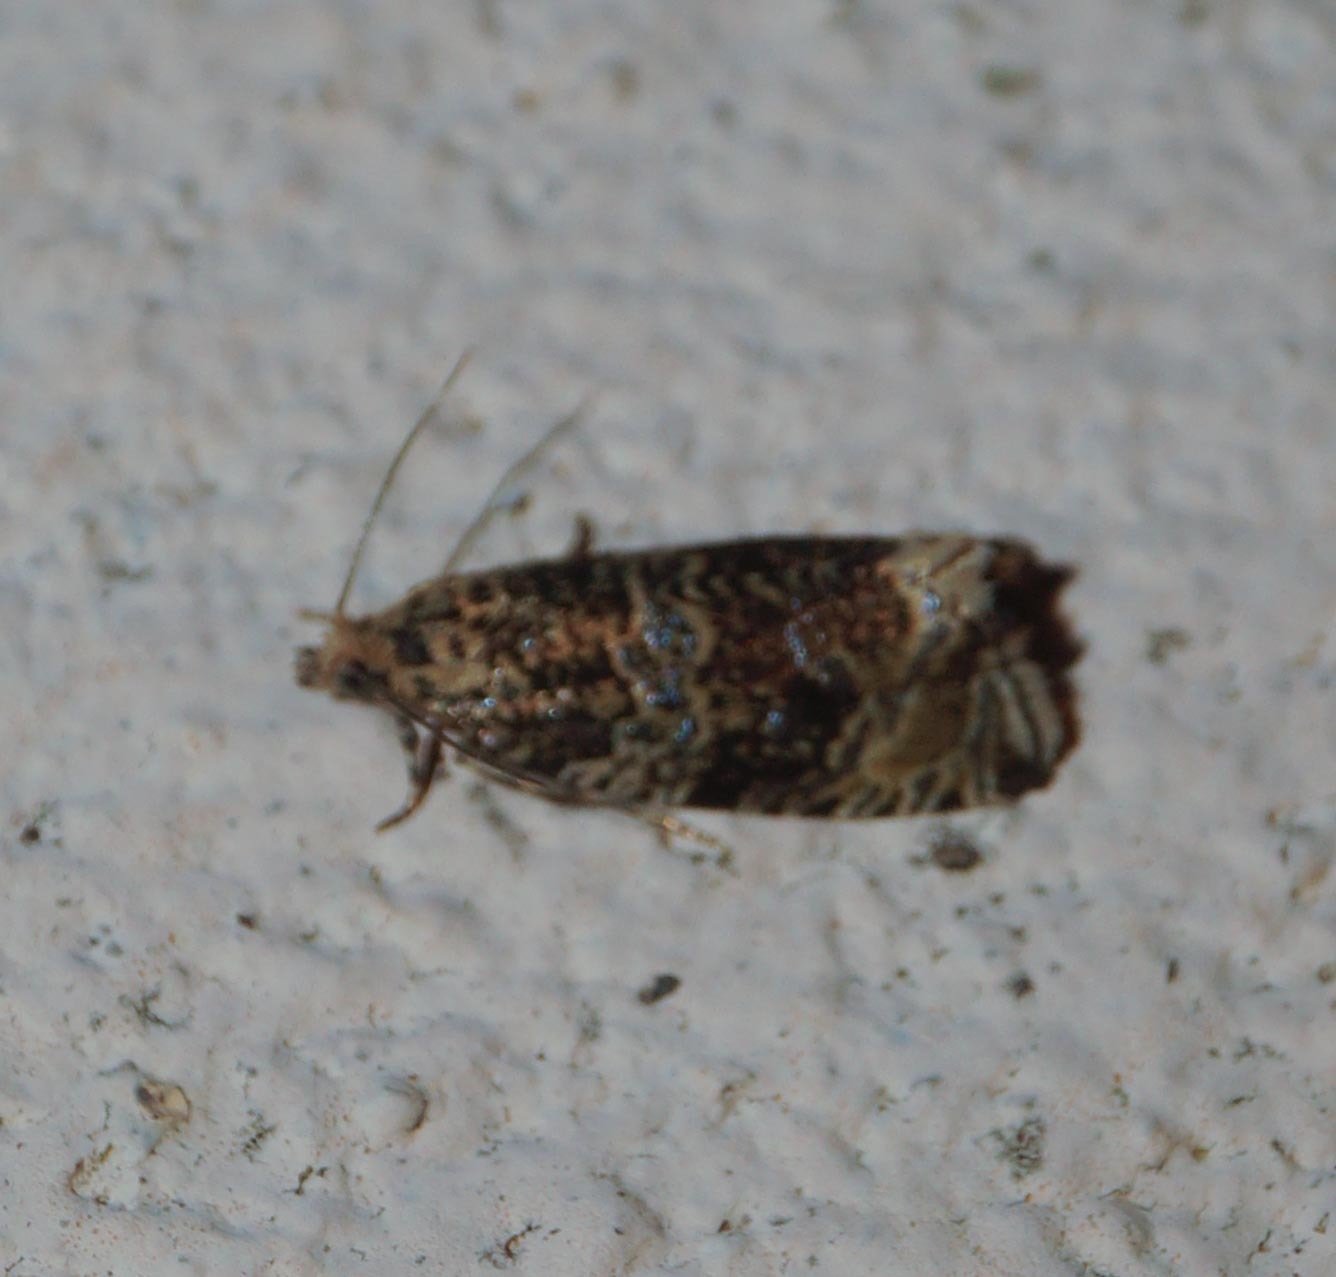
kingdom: Animalia
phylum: Arthropoda
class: Insecta
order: Lepidoptera
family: Tortricidae
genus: Syricoris
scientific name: Syricoris lacunana
